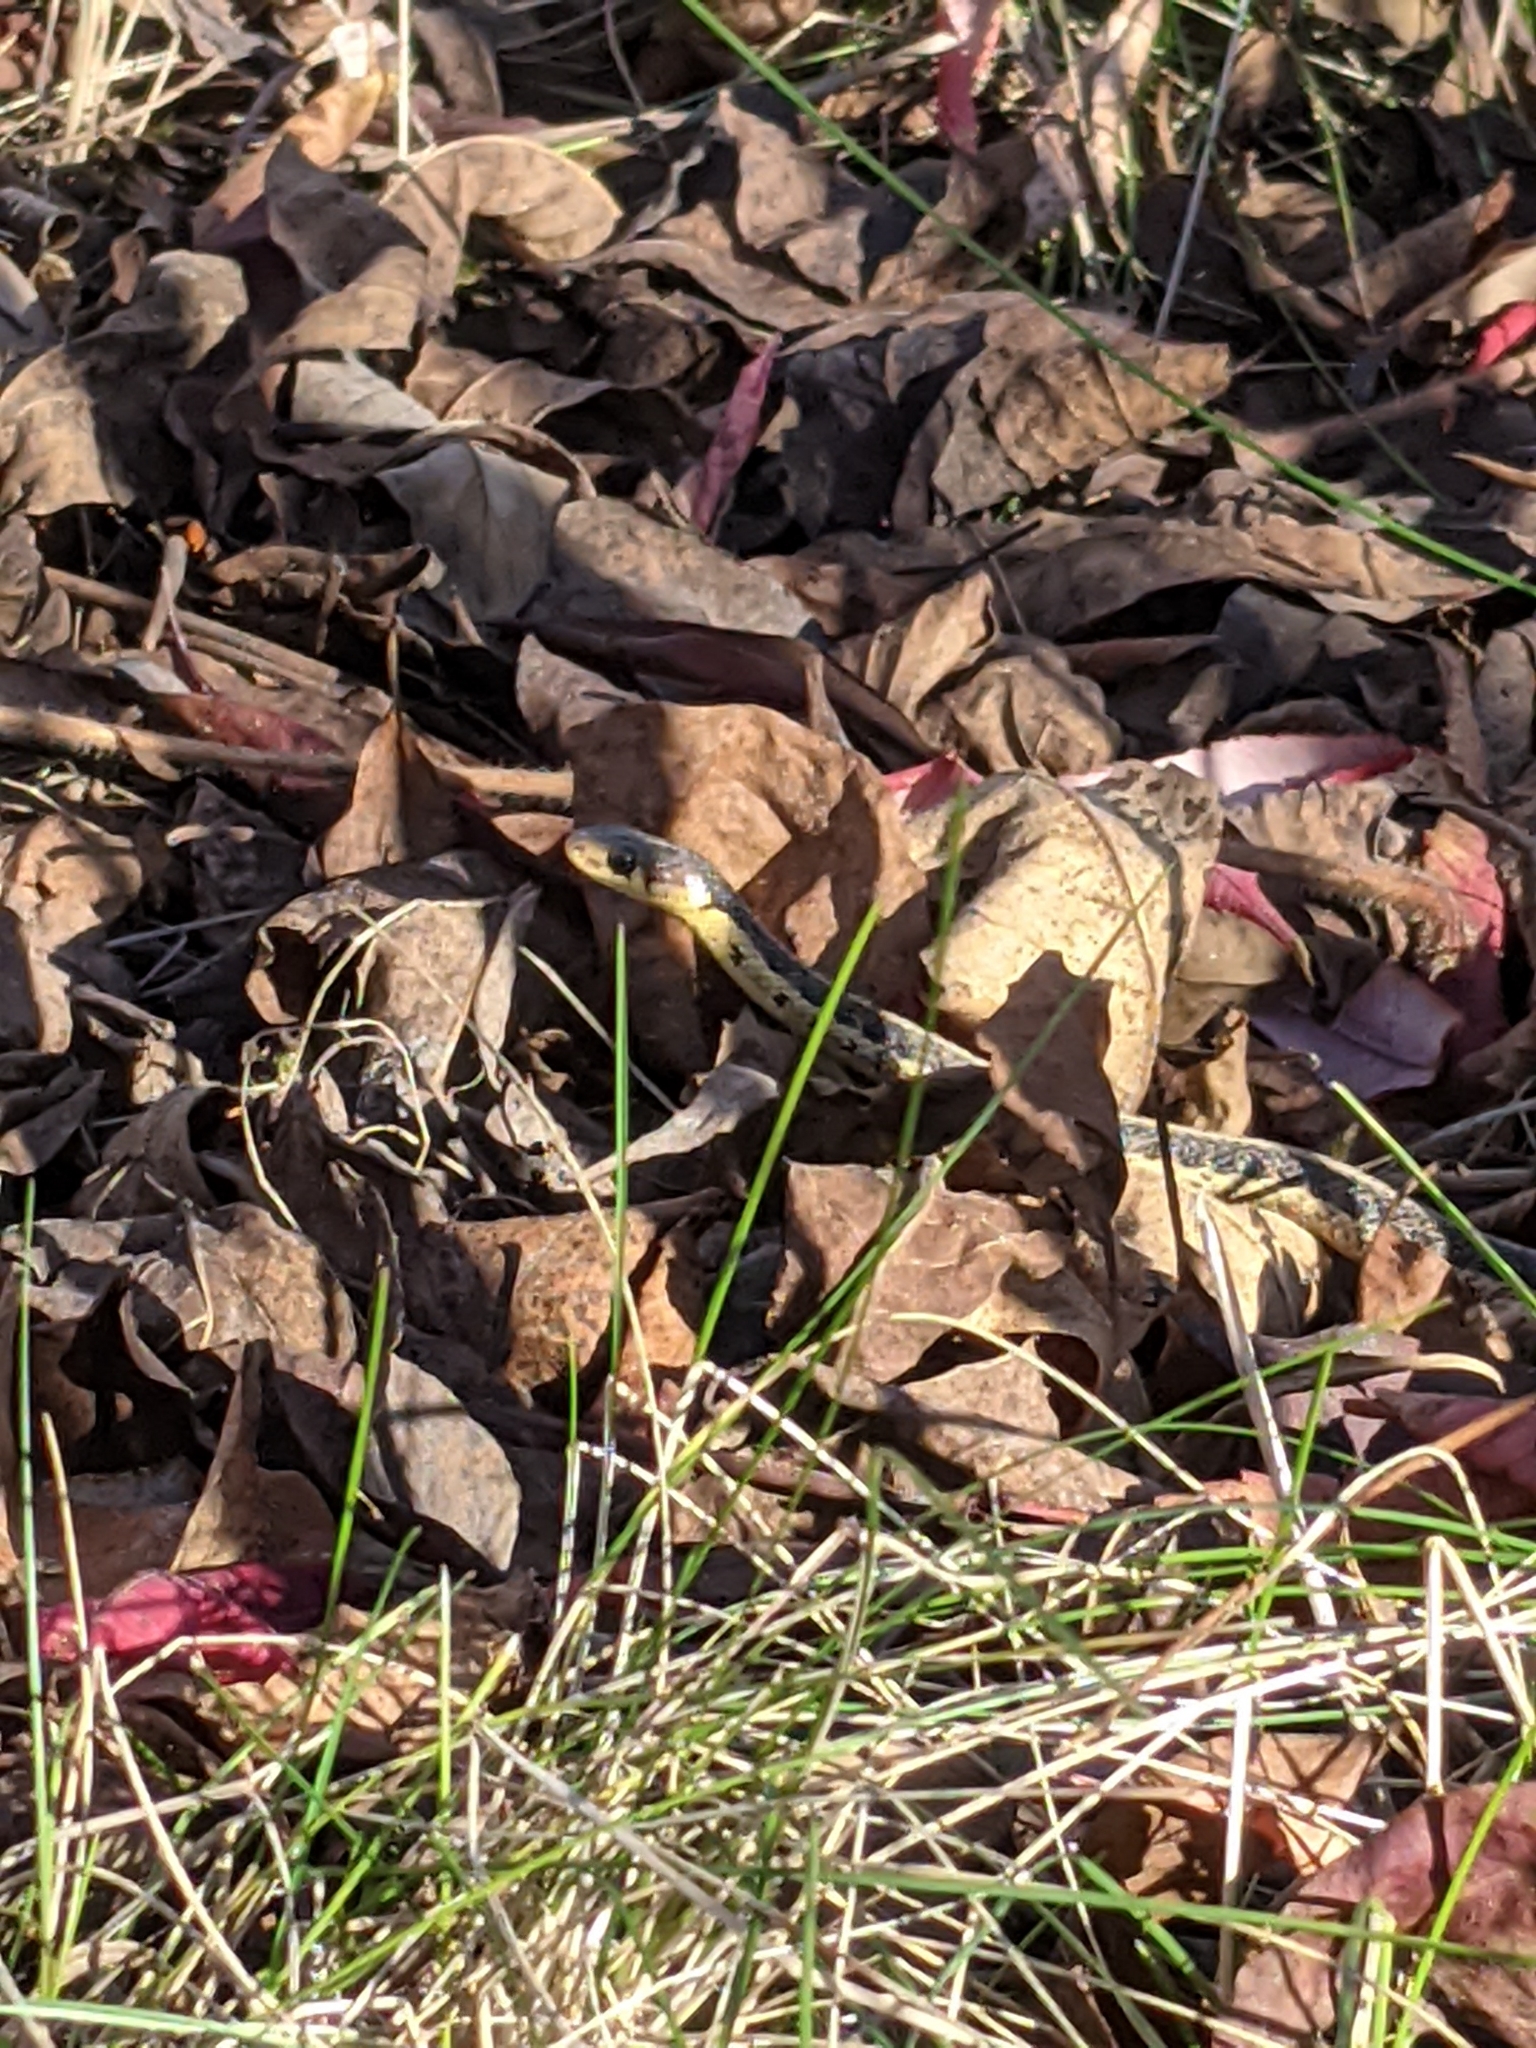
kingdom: Animalia
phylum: Chordata
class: Squamata
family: Colubridae
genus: Thamnophis
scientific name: Thamnophis sirtalis
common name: Common garter snake
